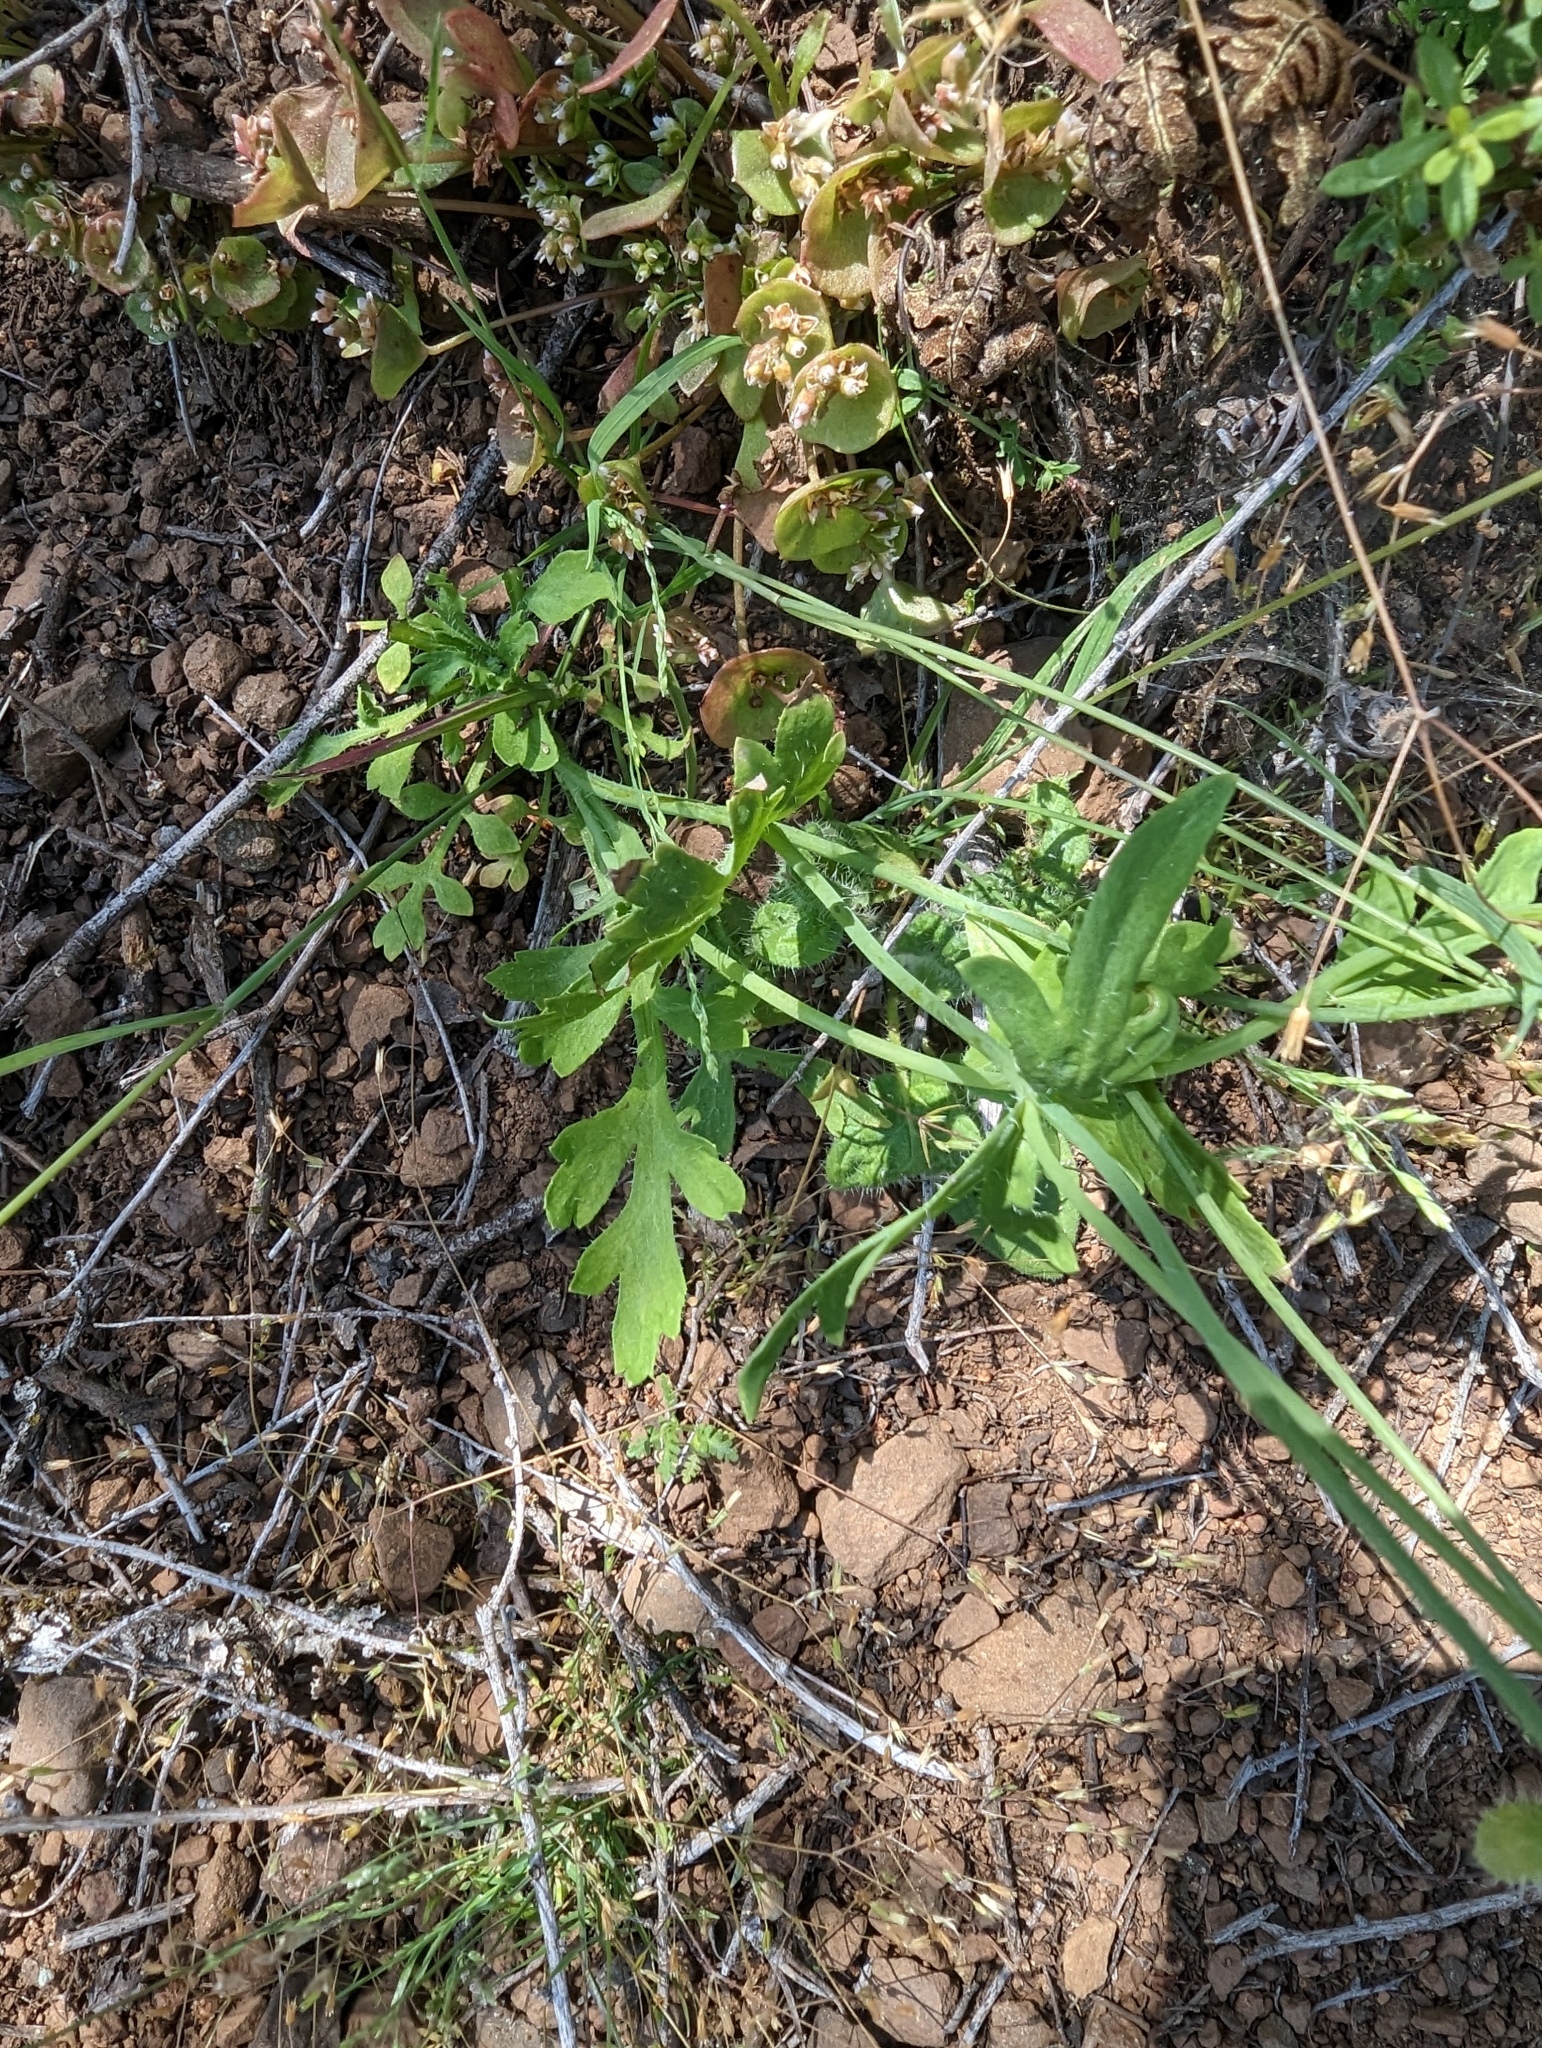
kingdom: Plantae
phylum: Tracheophyta
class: Magnoliopsida
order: Ranunculales
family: Papaveraceae
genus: Papaver
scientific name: Papaver californicum
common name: Fire poppy
